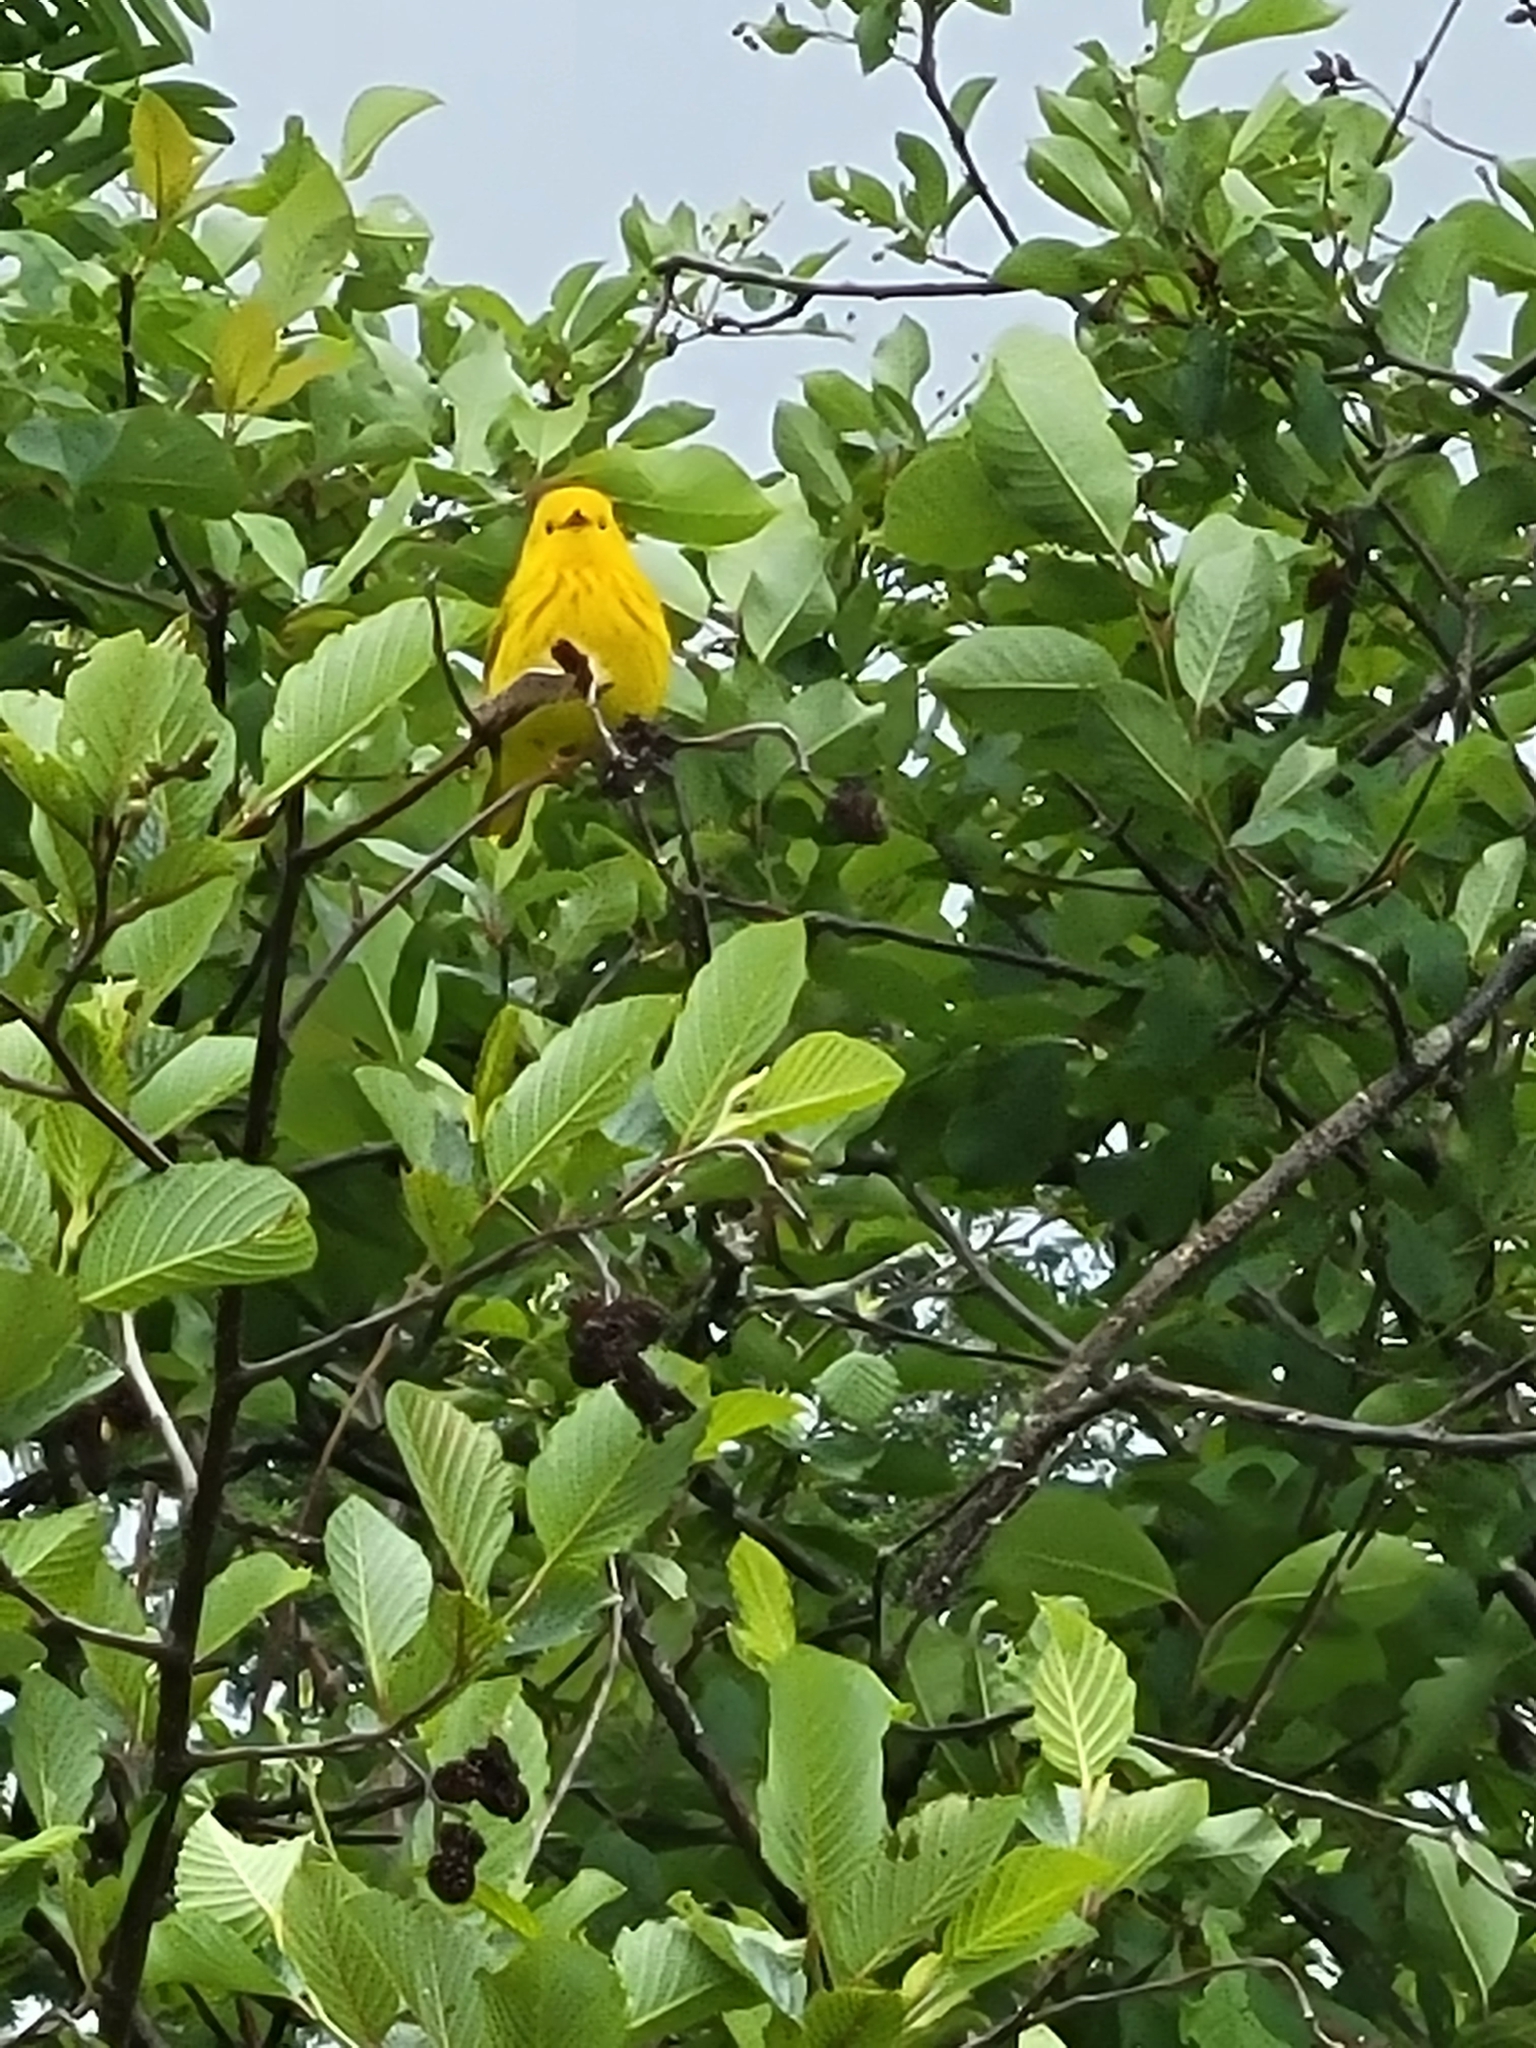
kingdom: Animalia
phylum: Chordata
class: Aves
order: Passeriformes
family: Parulidae
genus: Setophaga
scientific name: Setophaga petechia
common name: Yellow warbler
